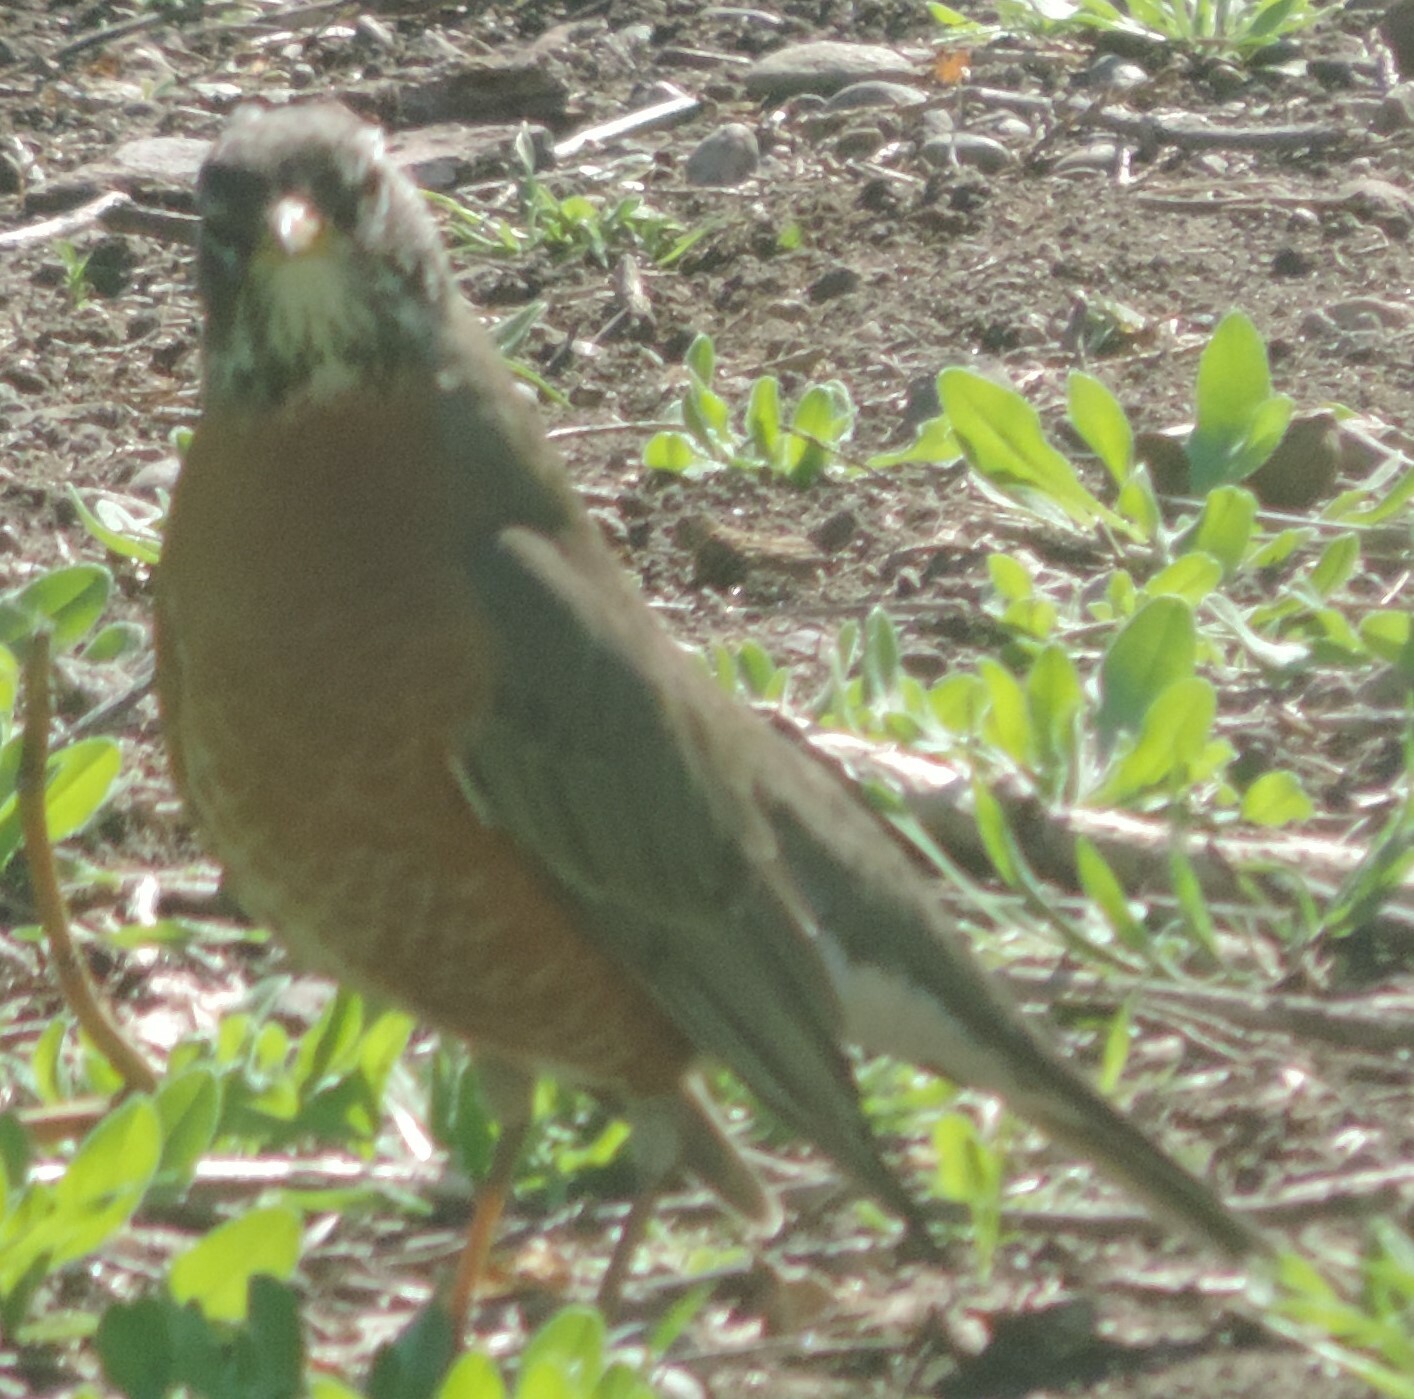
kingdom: Animalia
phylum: Chordata
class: Aves
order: Passeriformes
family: Turdidae
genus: Turdus
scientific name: Turdus migratorius
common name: American robin
